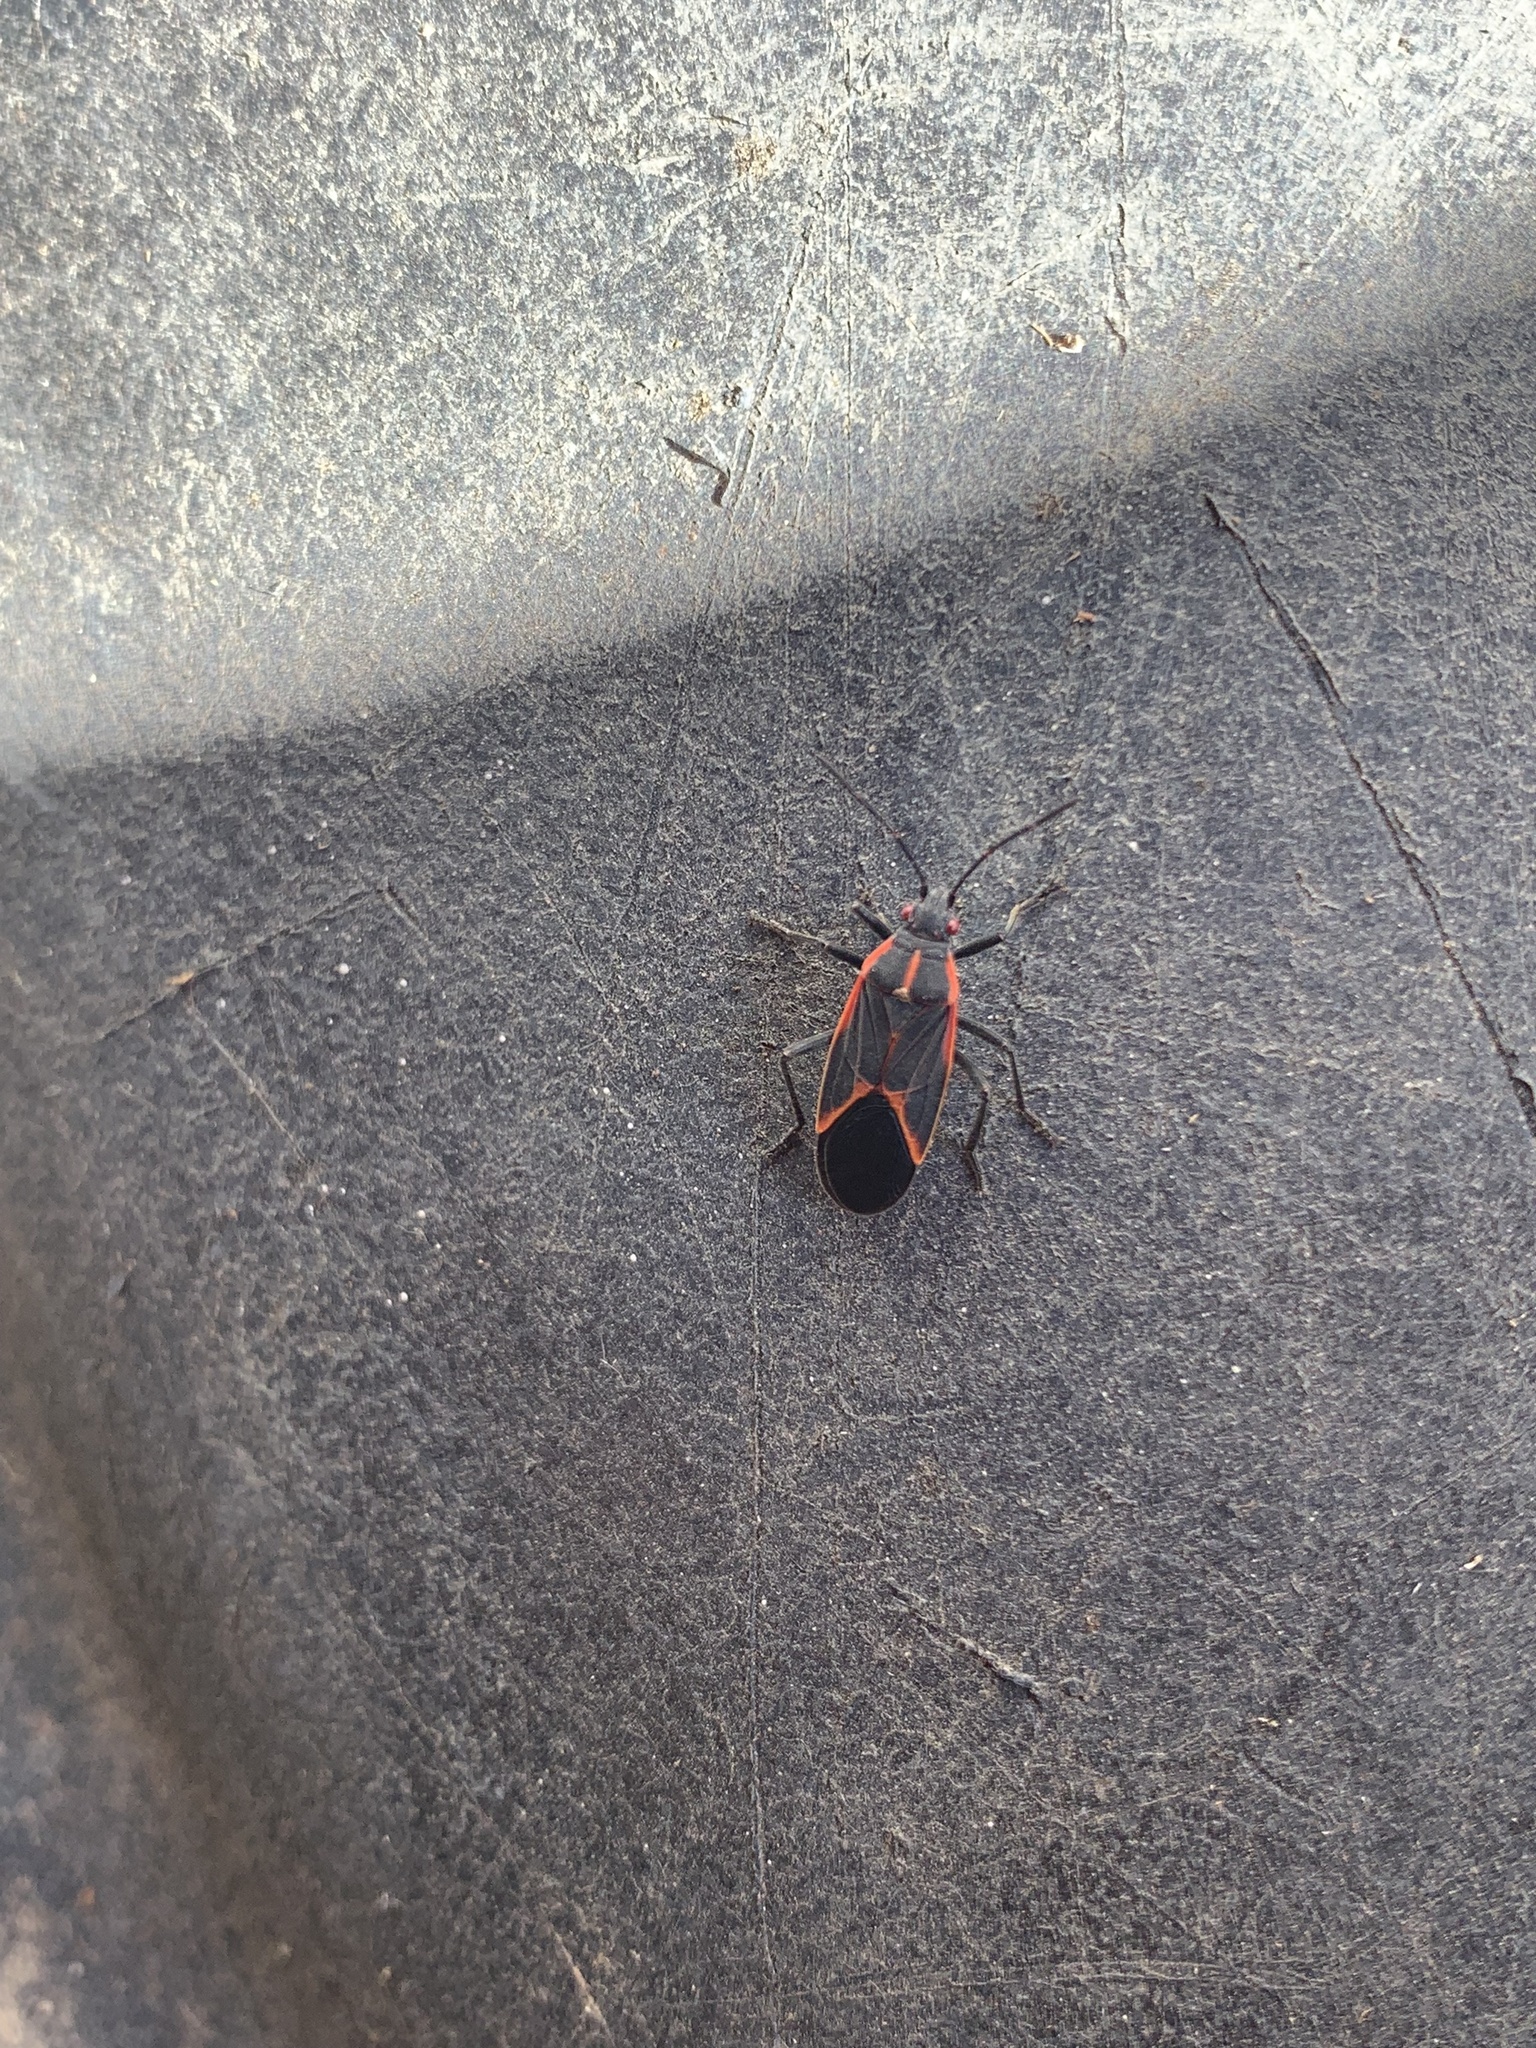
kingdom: Animalia
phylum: Arthropoda
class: Insecta
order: Hemiptera
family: Rhopalidae
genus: Boisea
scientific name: Boisea trivittata
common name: Boxelder bug
